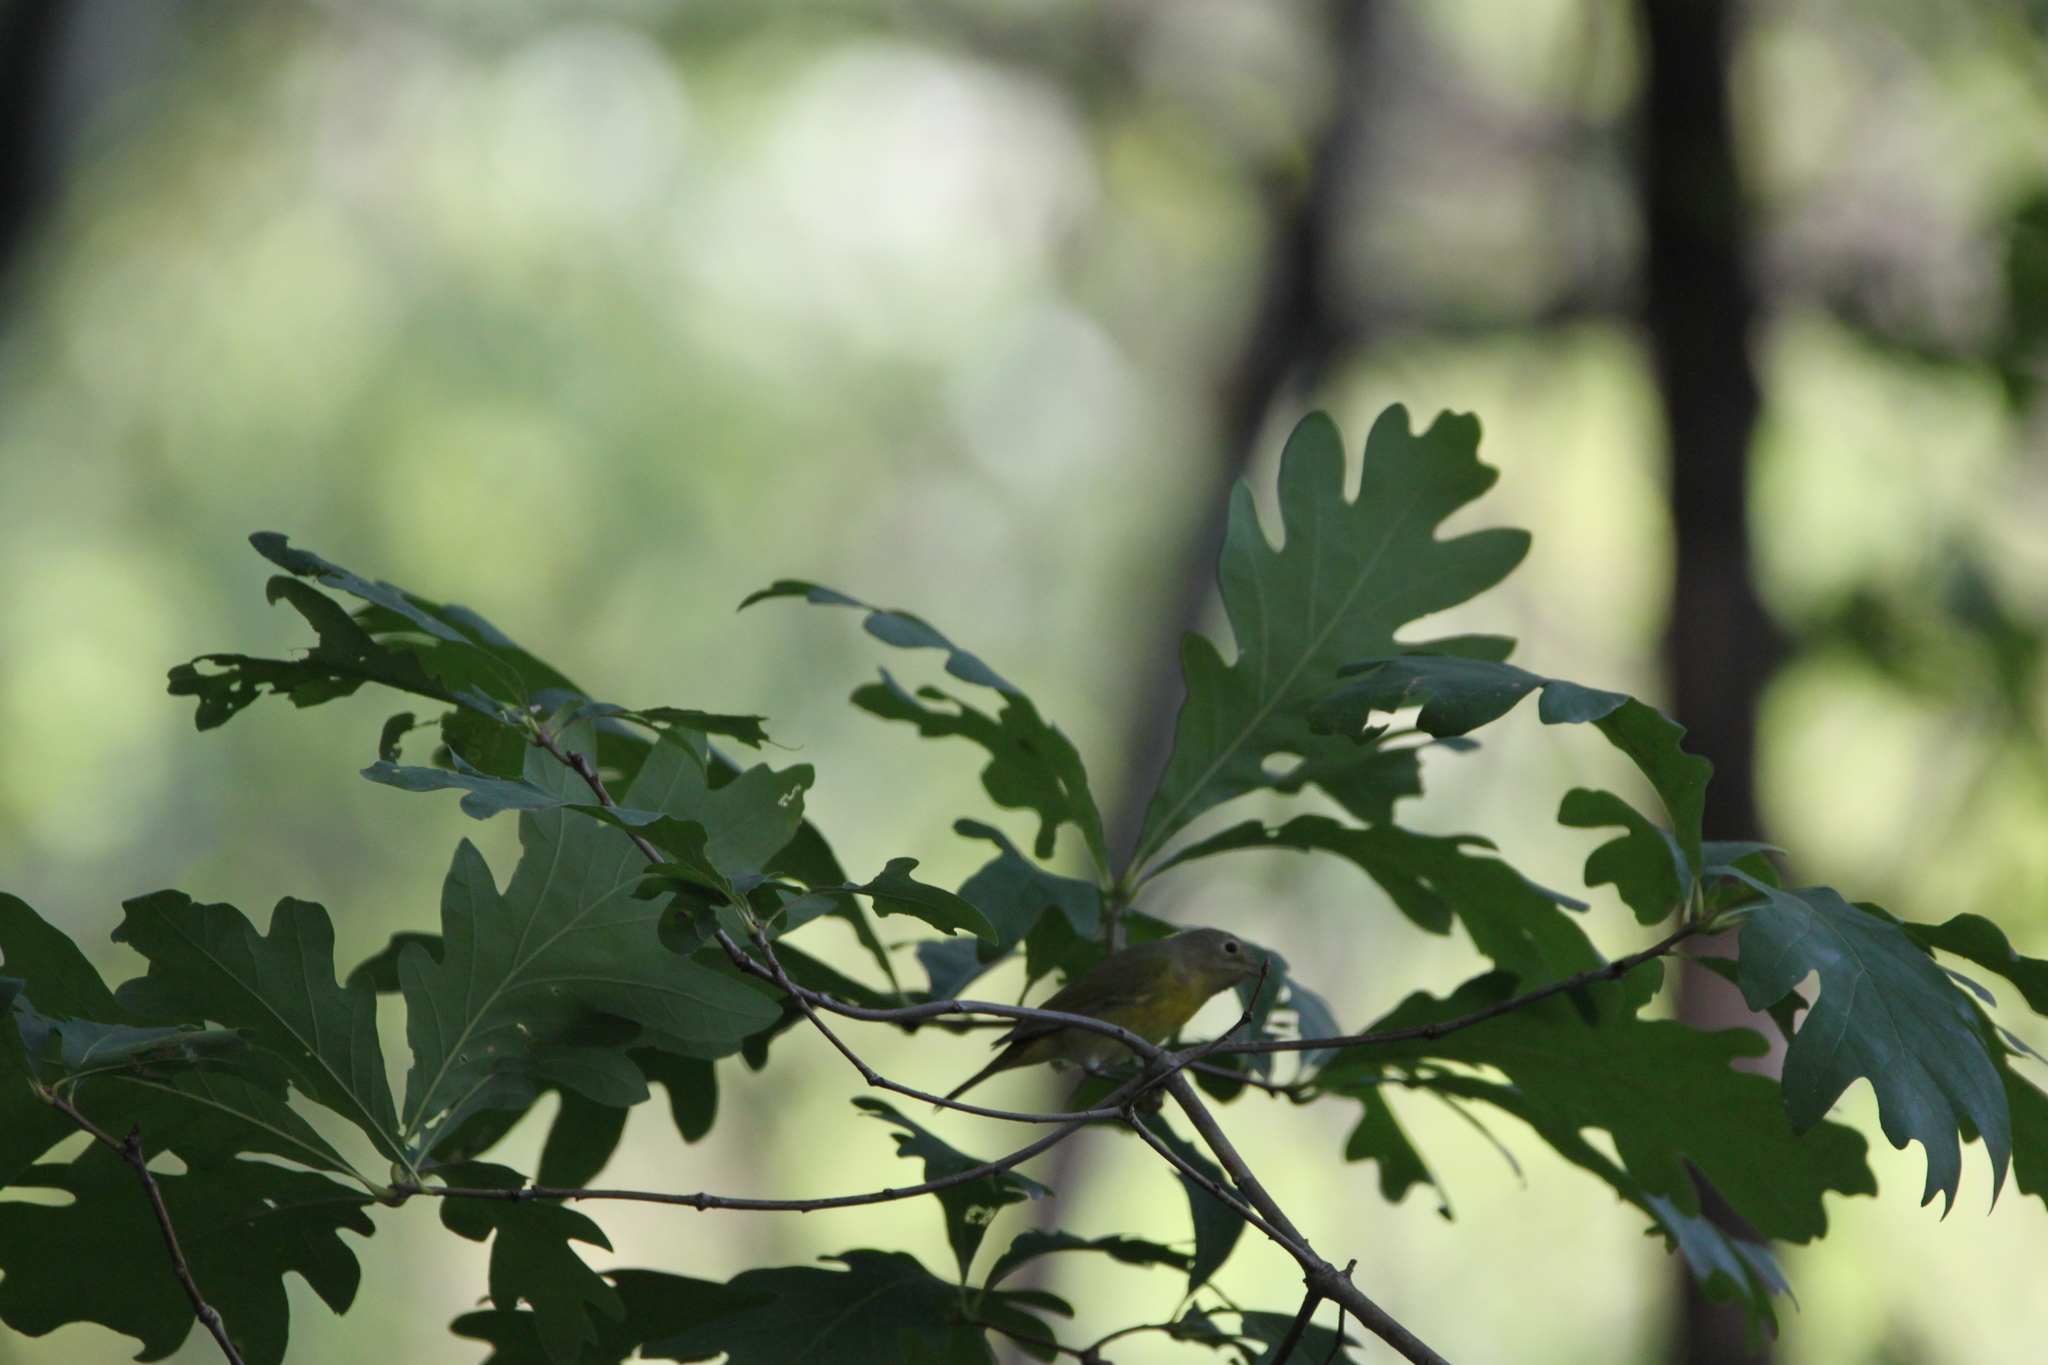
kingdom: Animalia
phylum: Chordata
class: Aves
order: Passeriformes
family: Parulidae
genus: Leiothlypis
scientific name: Leiothlypis ruficapilla
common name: Nashville warbler
